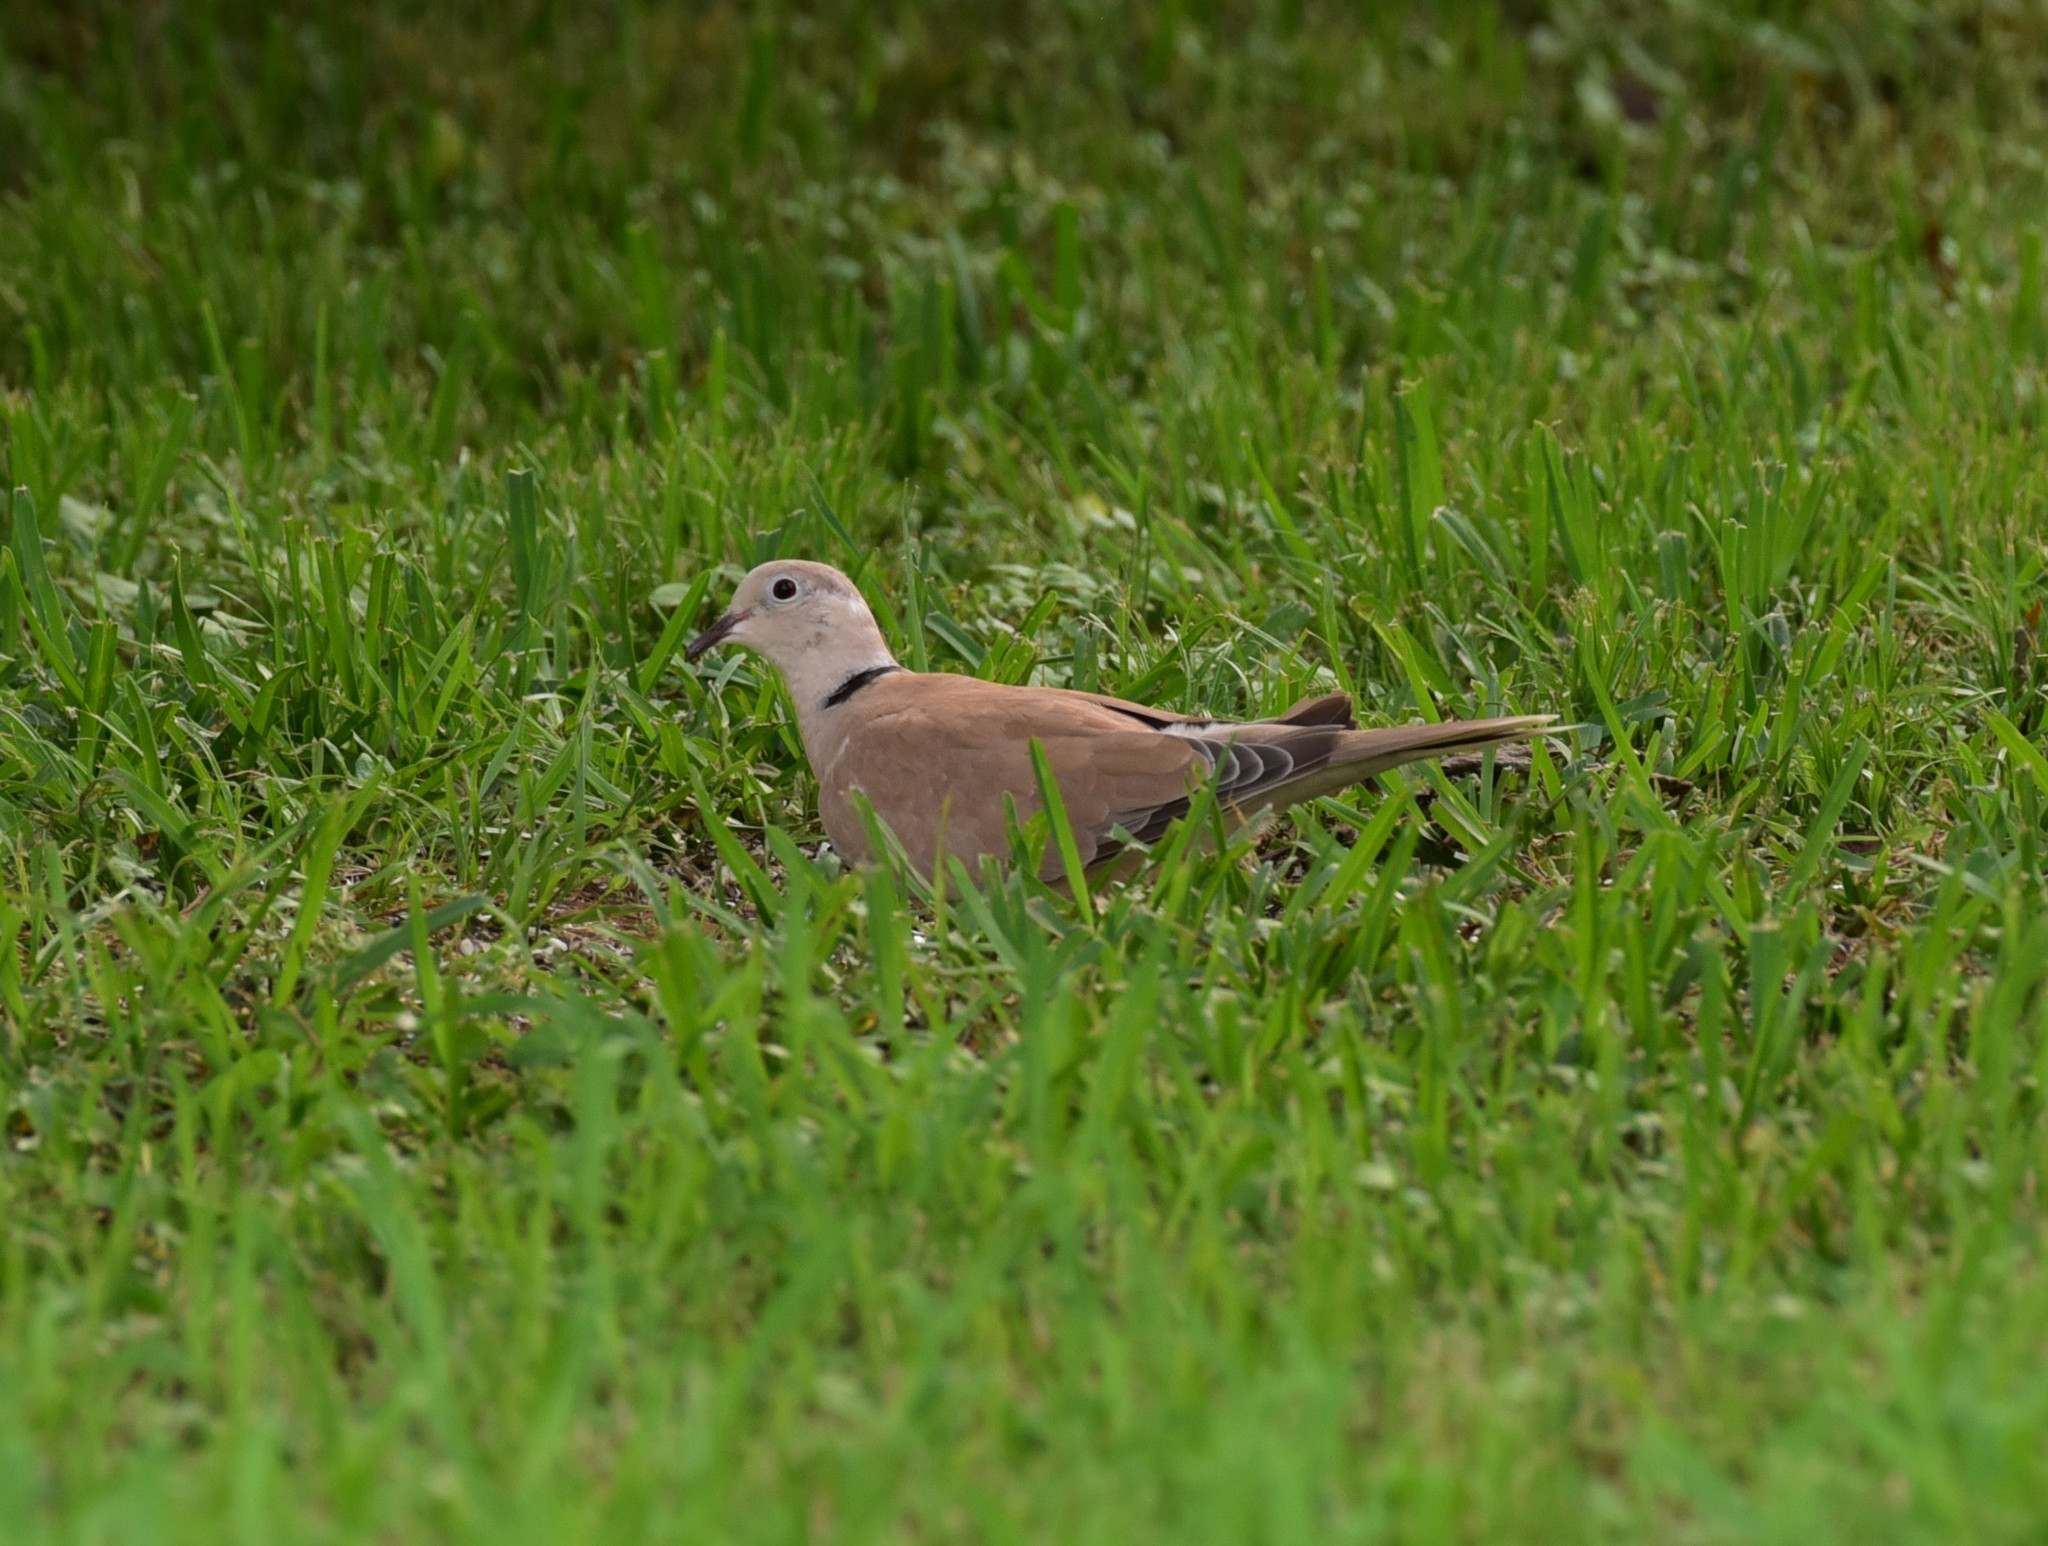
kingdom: Animalia
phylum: Chordata
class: Aves
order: Columbiformes
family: Columbidae
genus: Streptopelia
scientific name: Streptopelia decaocto
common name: Eurasian collared dove
